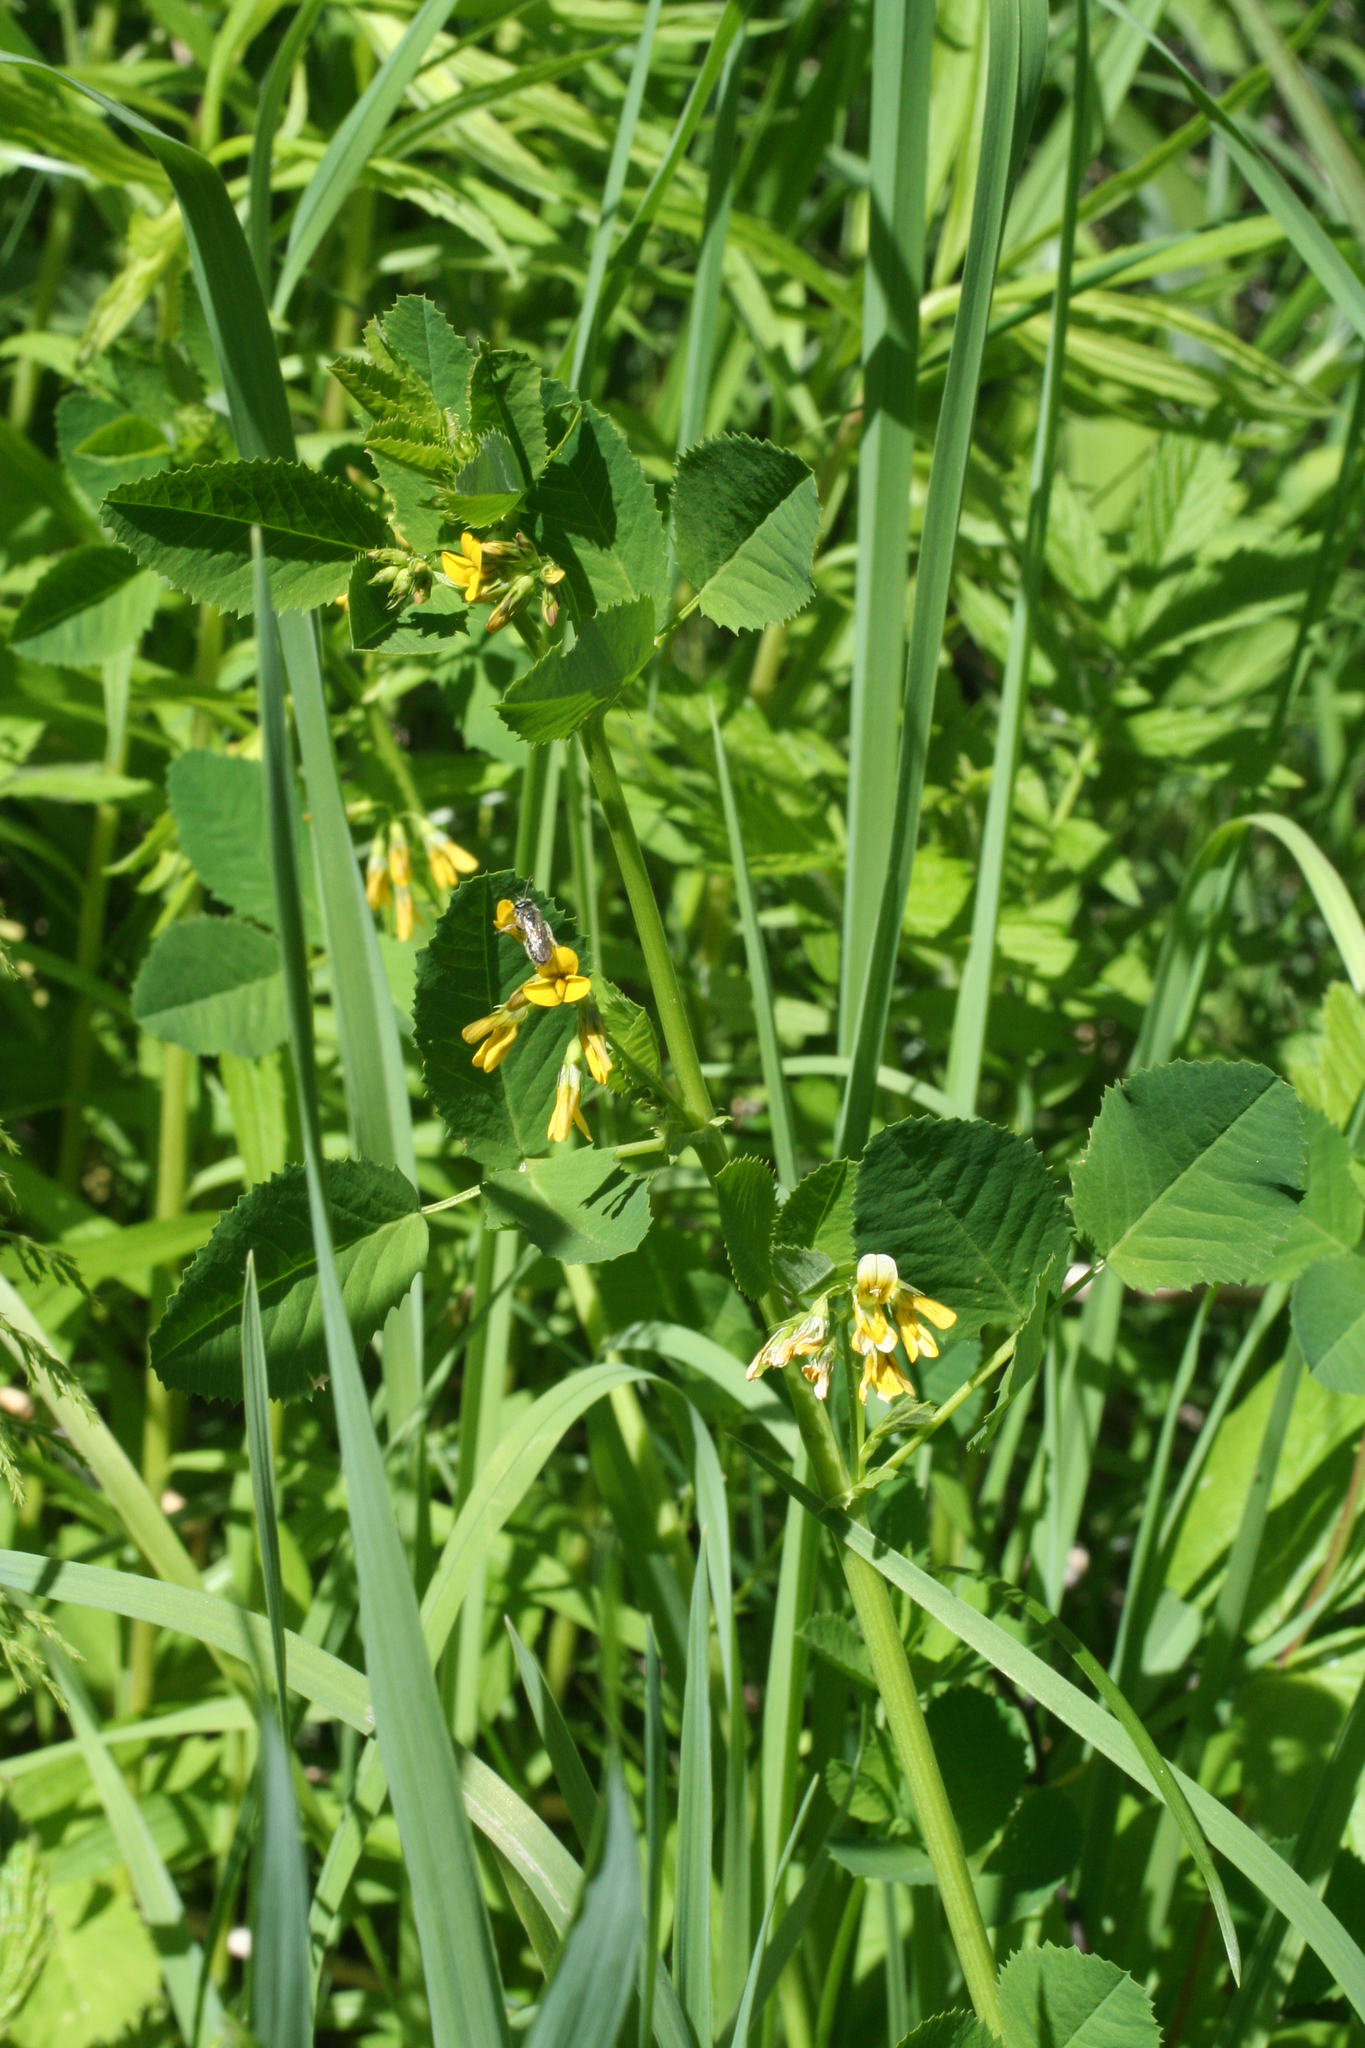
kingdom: Plantae
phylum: Tracheophyta
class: Magnoliopsida
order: Fabales
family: Fabaceae
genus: Medicago
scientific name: Medicago platycarpos
